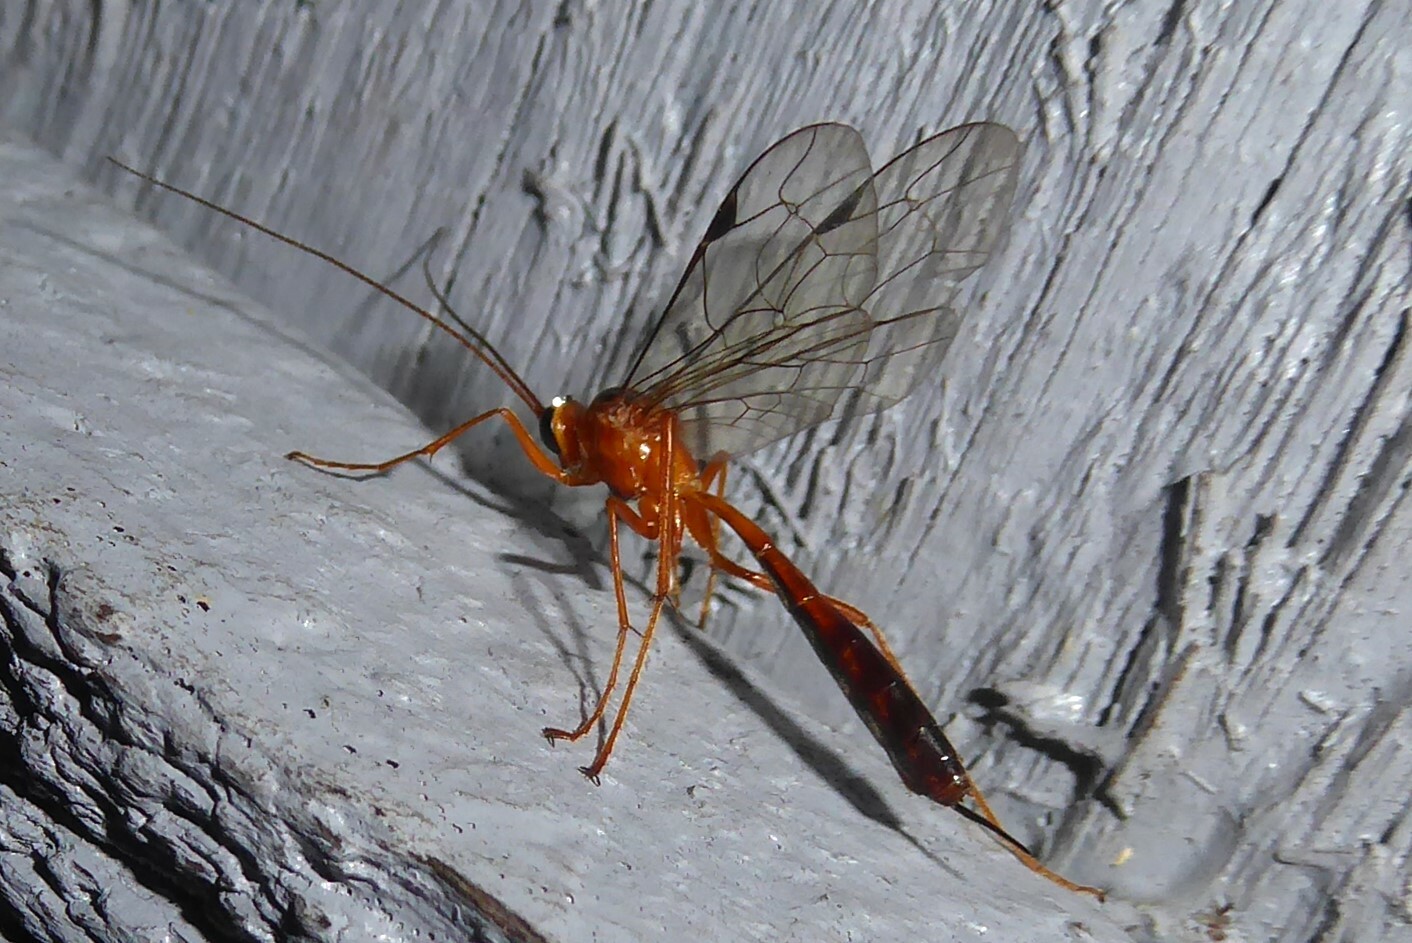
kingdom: Animalia
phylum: Arthropoda
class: Insecta
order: Hymenoptera
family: Ichneumonidae
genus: Netelia
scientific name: Netelia ephippiata
